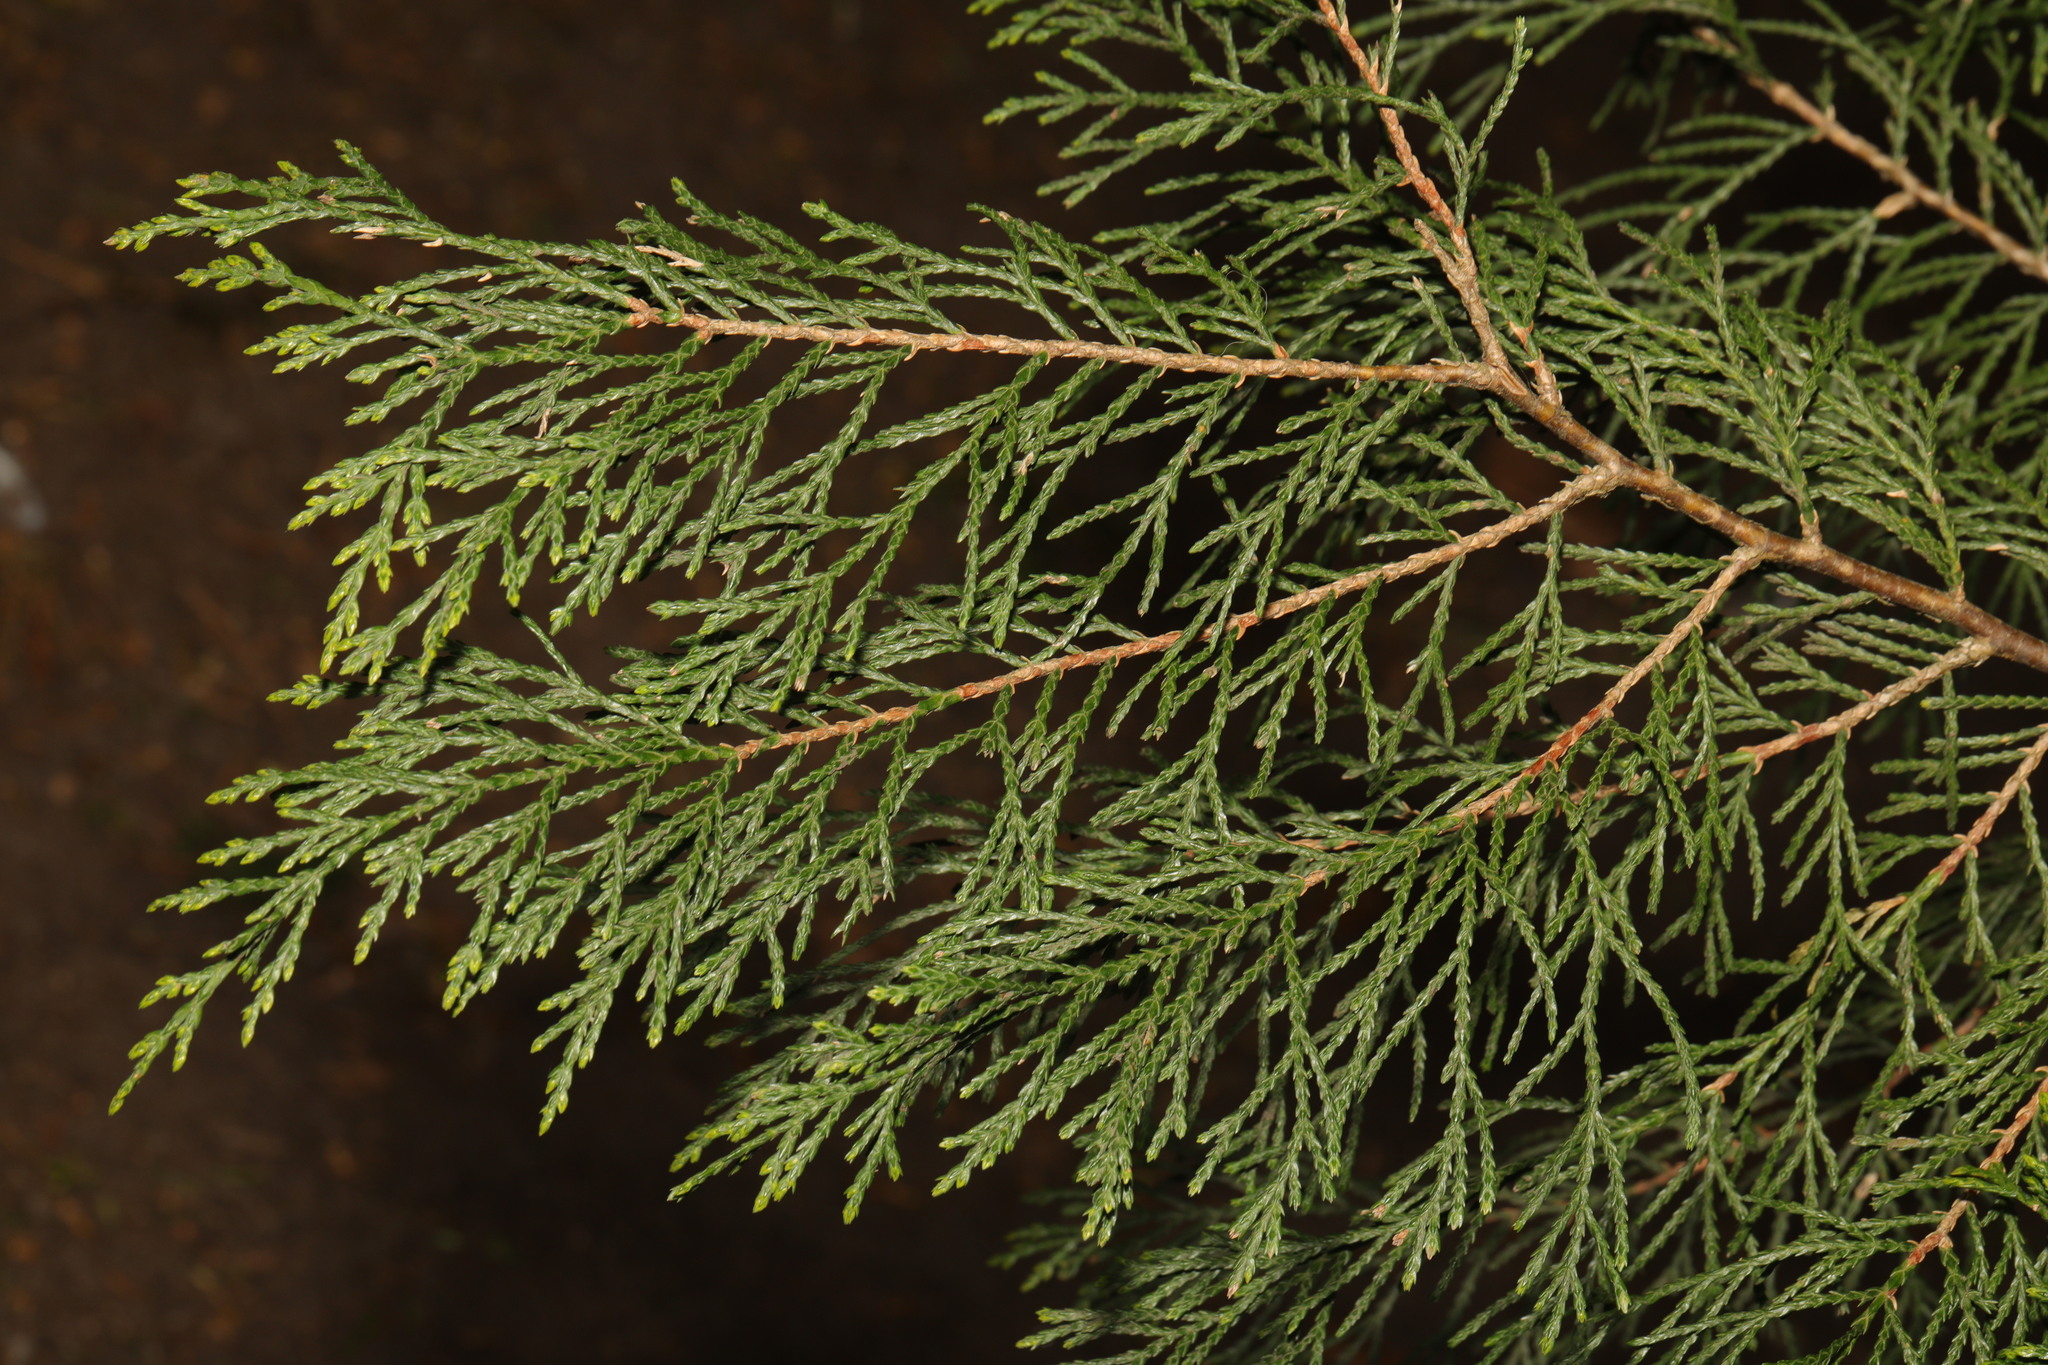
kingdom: Plantae
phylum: Tracheophyta
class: Pinopsida
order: Pinales
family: Cupressaceae
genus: Chamaecyparis
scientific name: Chamaecyparis lawsoniana
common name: Lawson's cypress
